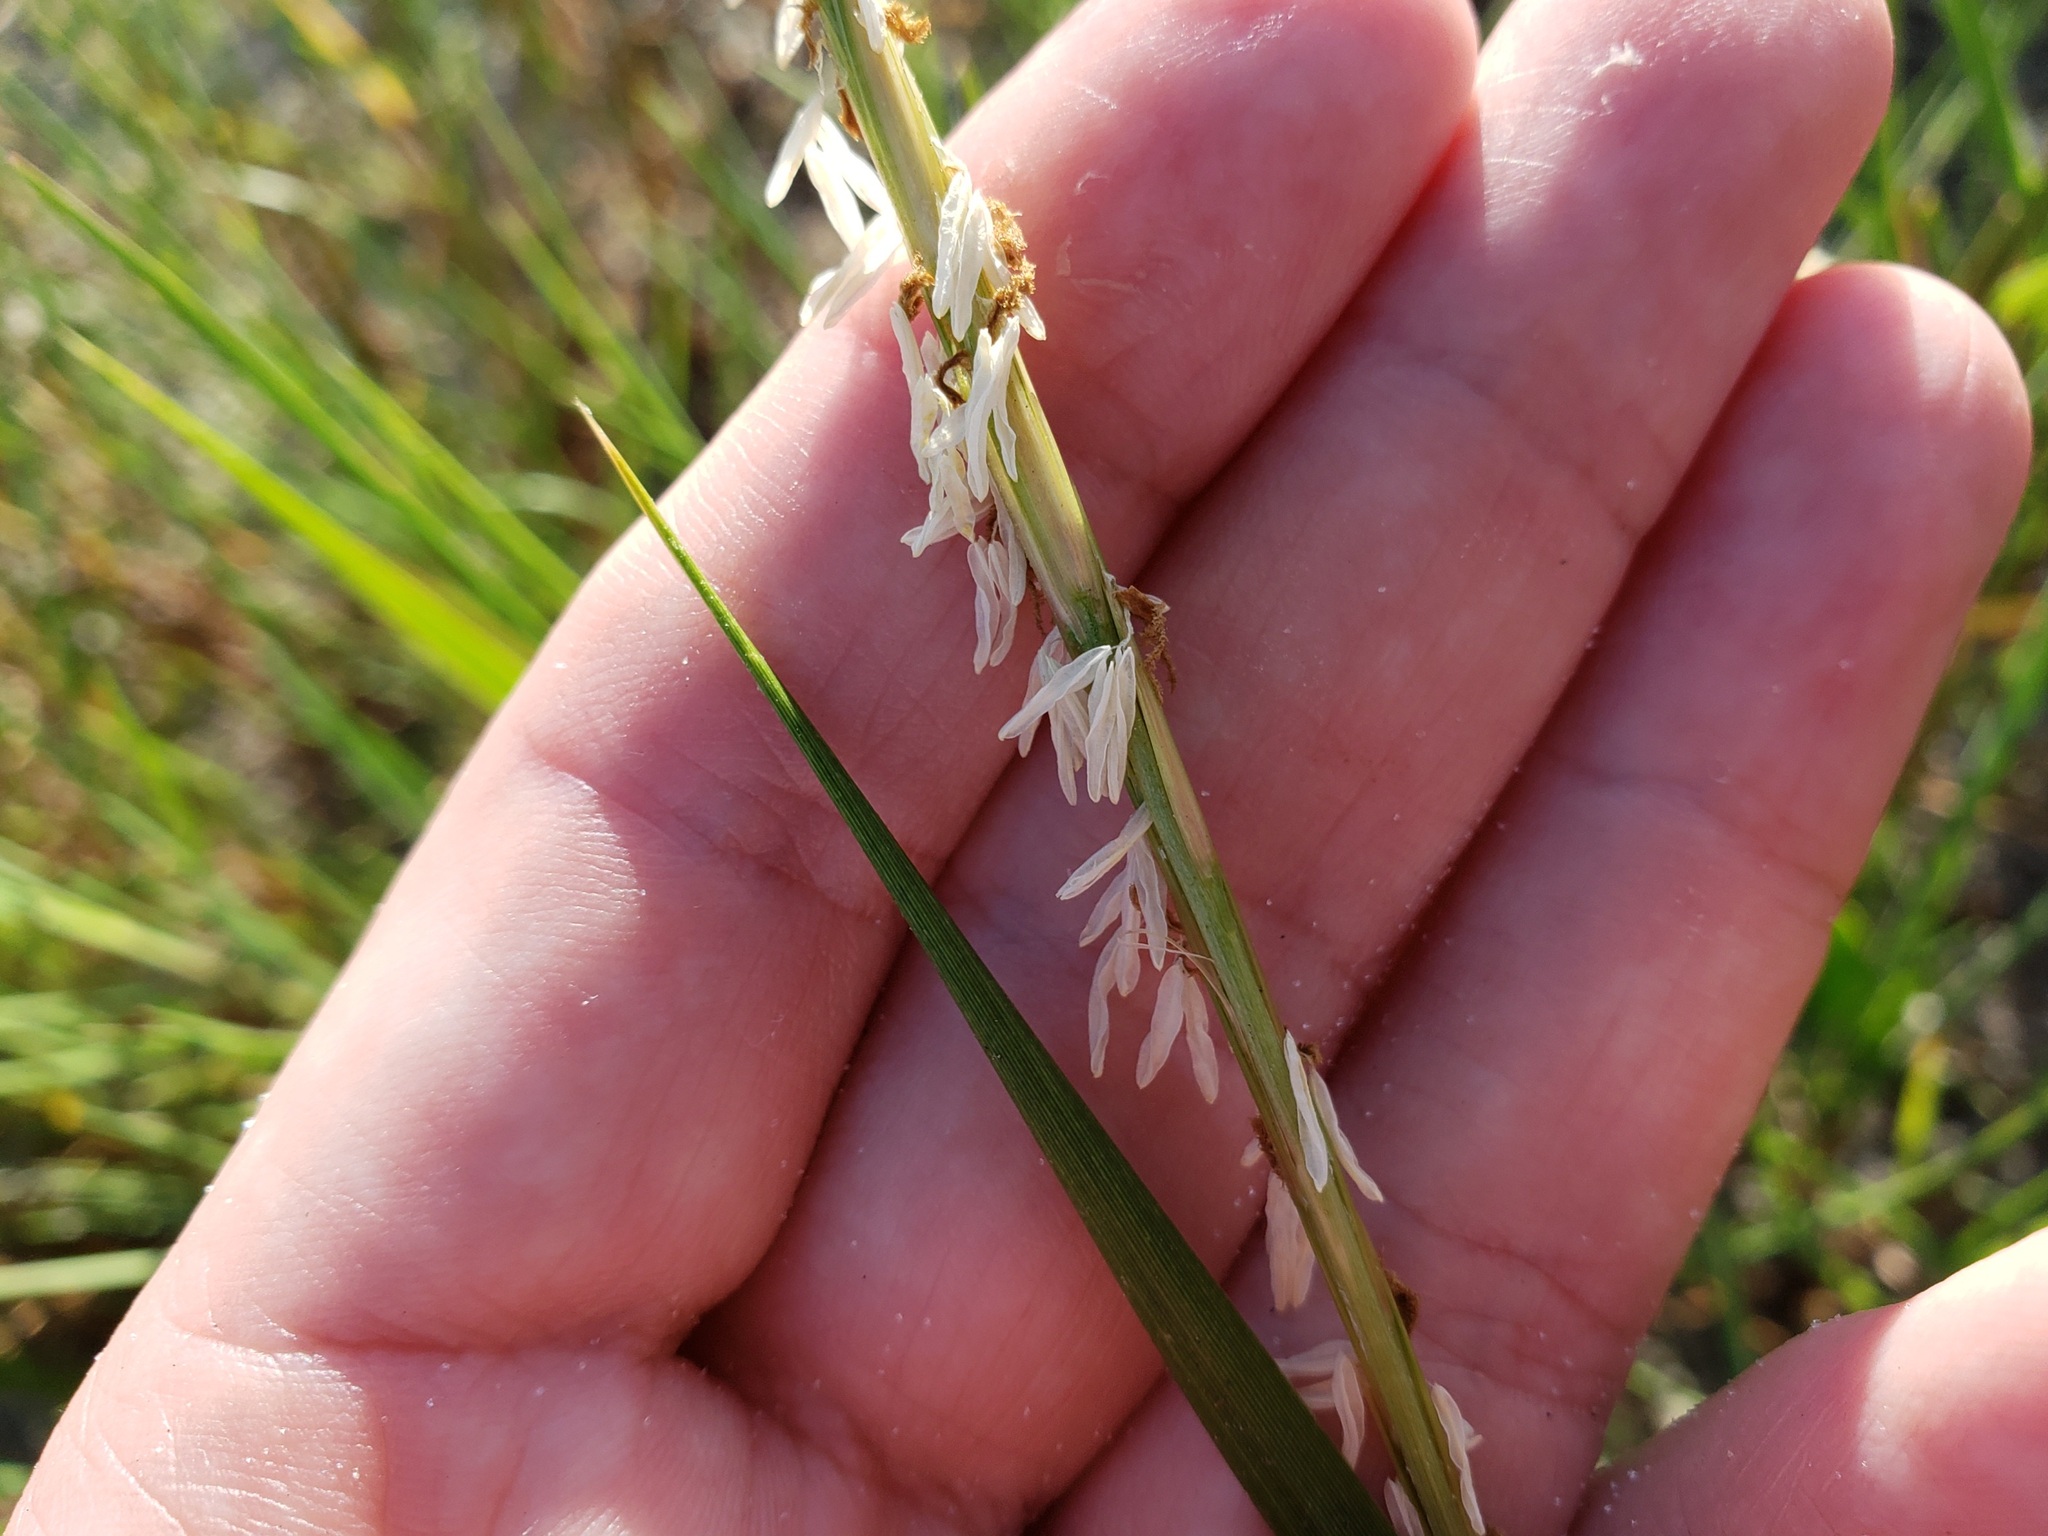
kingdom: Plantae
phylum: Tracheophyta
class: Liliopsida
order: Poales
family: Poaceae
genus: Sporobolus
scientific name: Sporobolus alterniflorus
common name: Atlantic cordgrass
